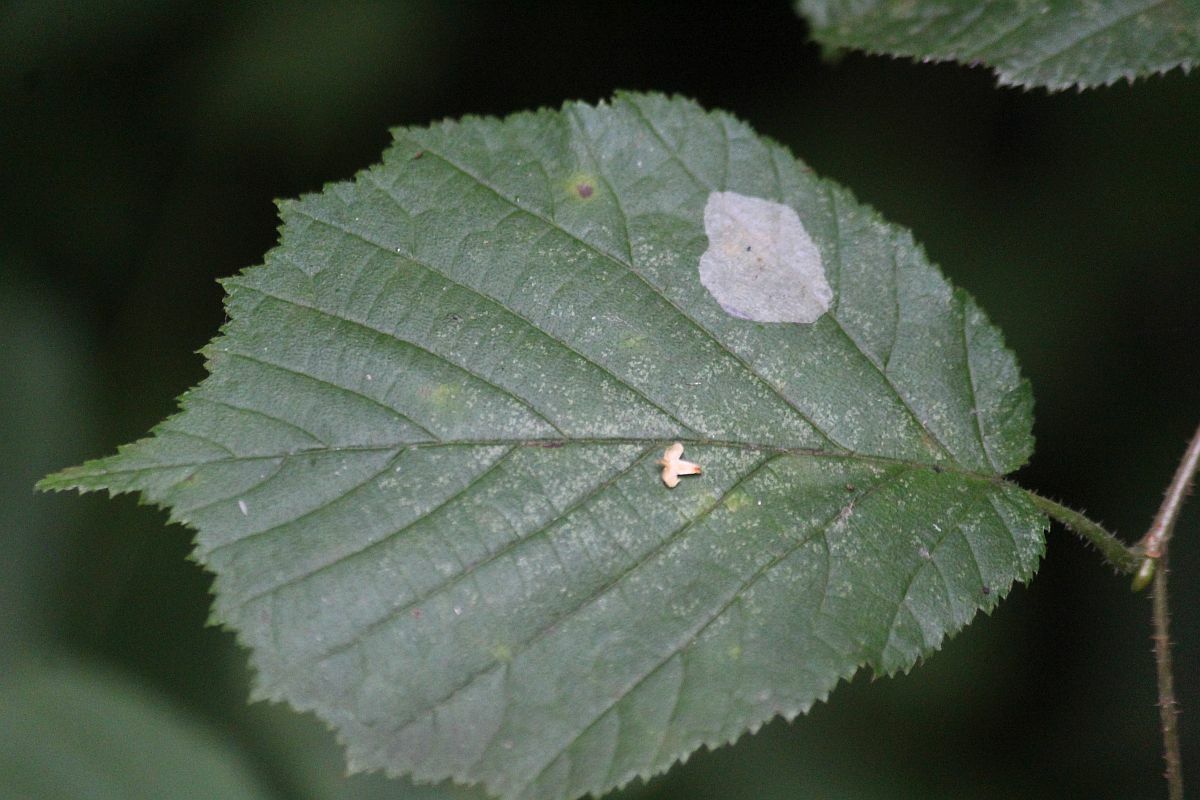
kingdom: Animalia
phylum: Arthropoda
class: Insecta
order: Lepidoptera
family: Gracillariidae
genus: Phyllonorycter
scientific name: Phyllonorycter coryli
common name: Nut-leaf blister moth
